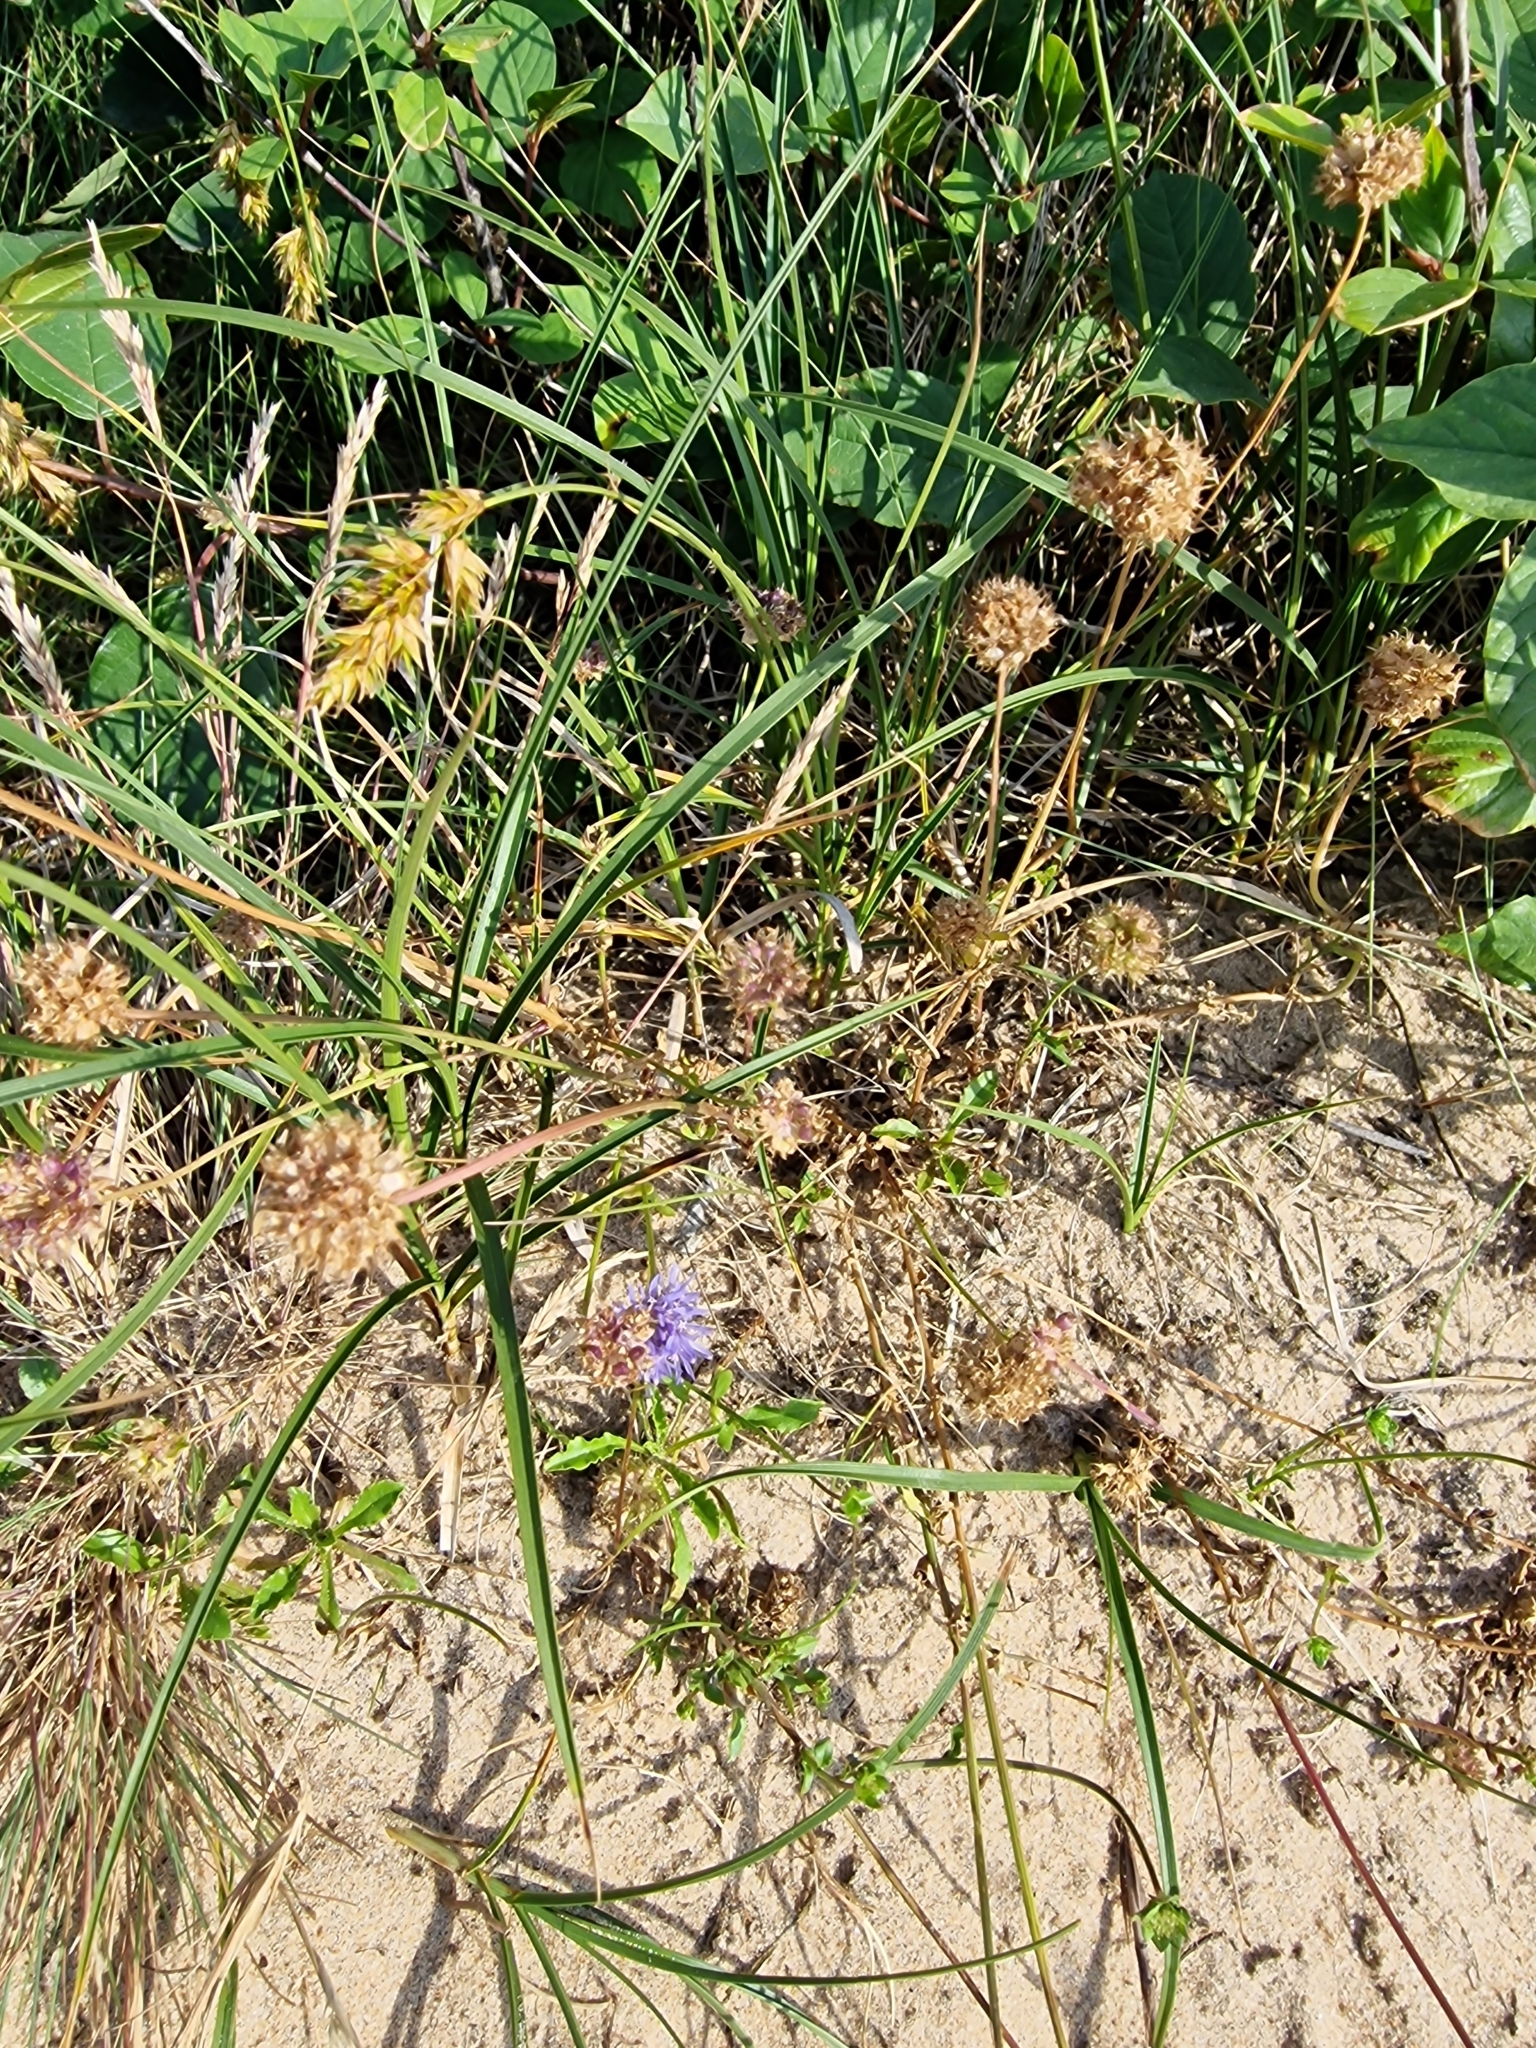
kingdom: Plantae
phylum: Tracheophyta
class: Magnoliopsida
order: Asterales
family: Campanulaceae
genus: Jasione
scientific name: Jasione montana
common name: Sheep's-bit
